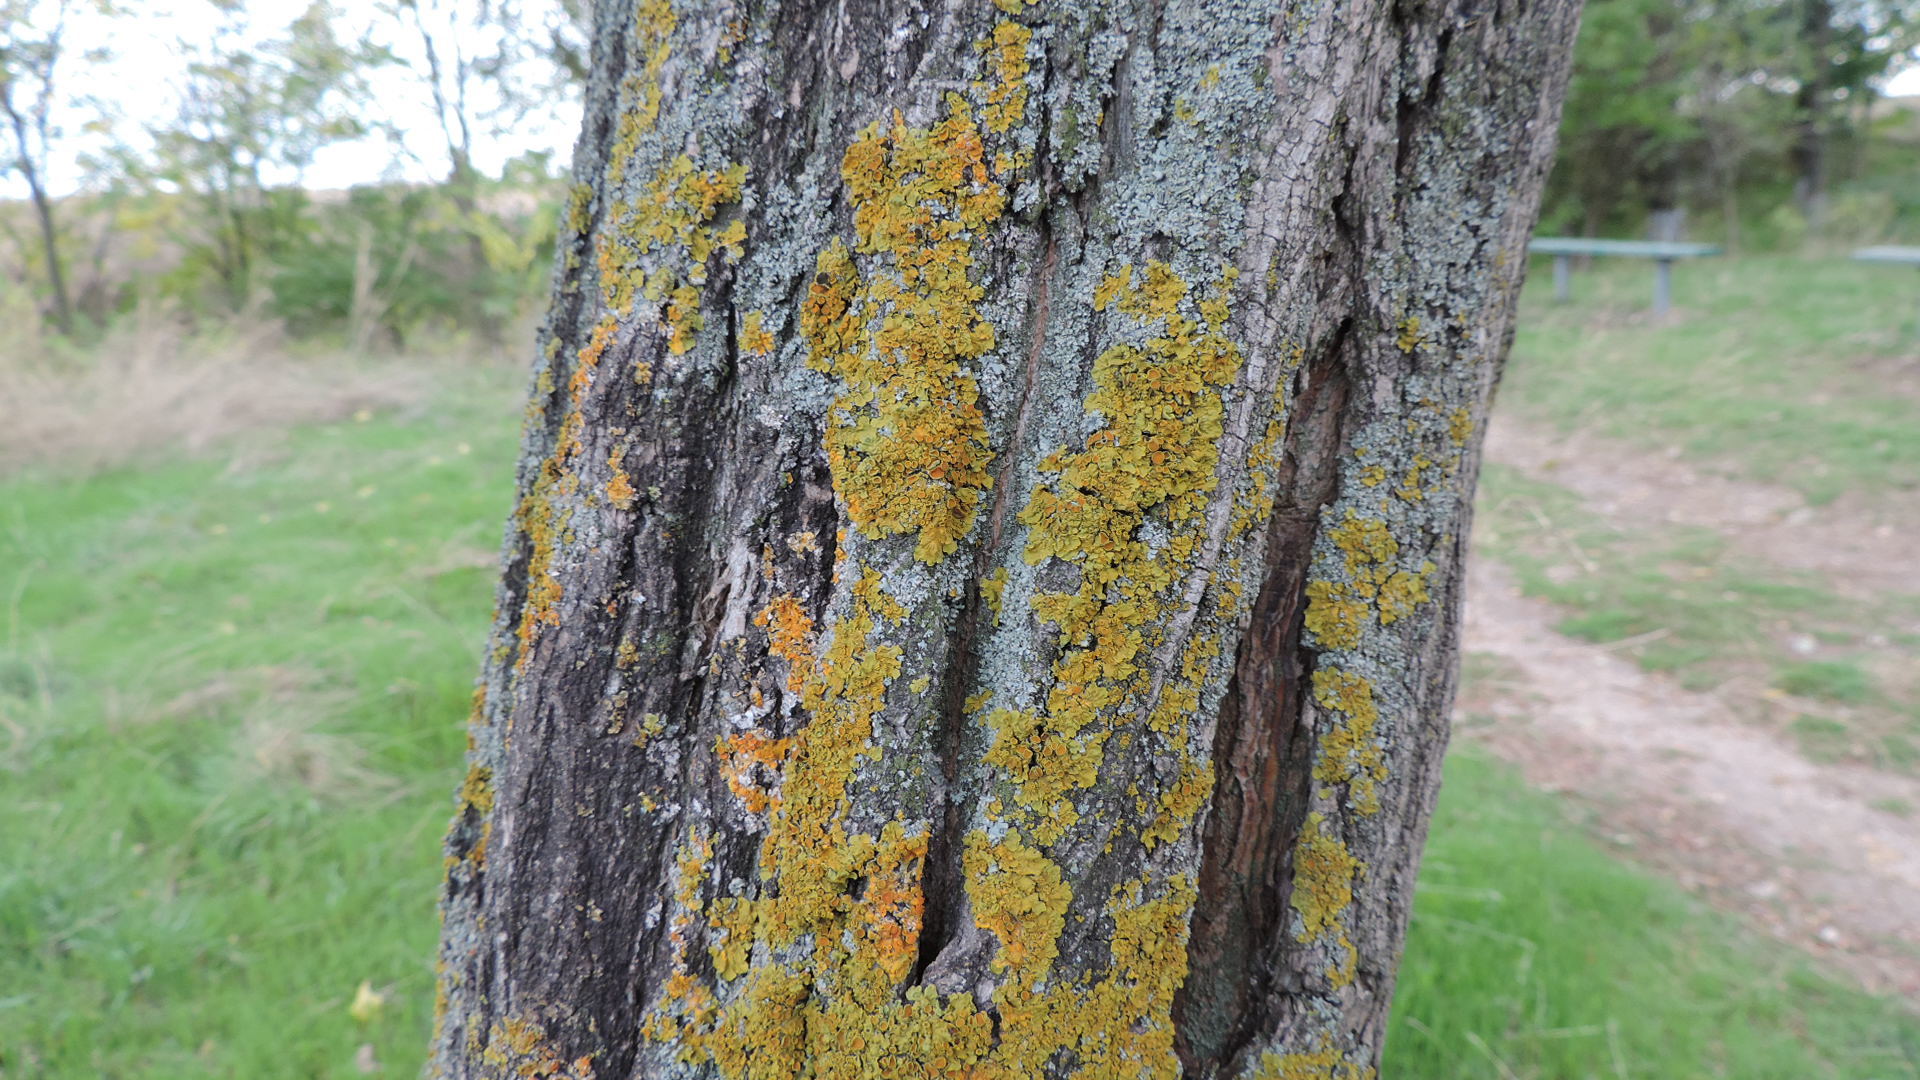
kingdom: Fungi
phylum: Ascomycota
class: Lecanoromycetes
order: Teloschistales
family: Teloschistaceae
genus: Xanthoria
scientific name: Xanthoria parietina
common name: Common orange lichen
